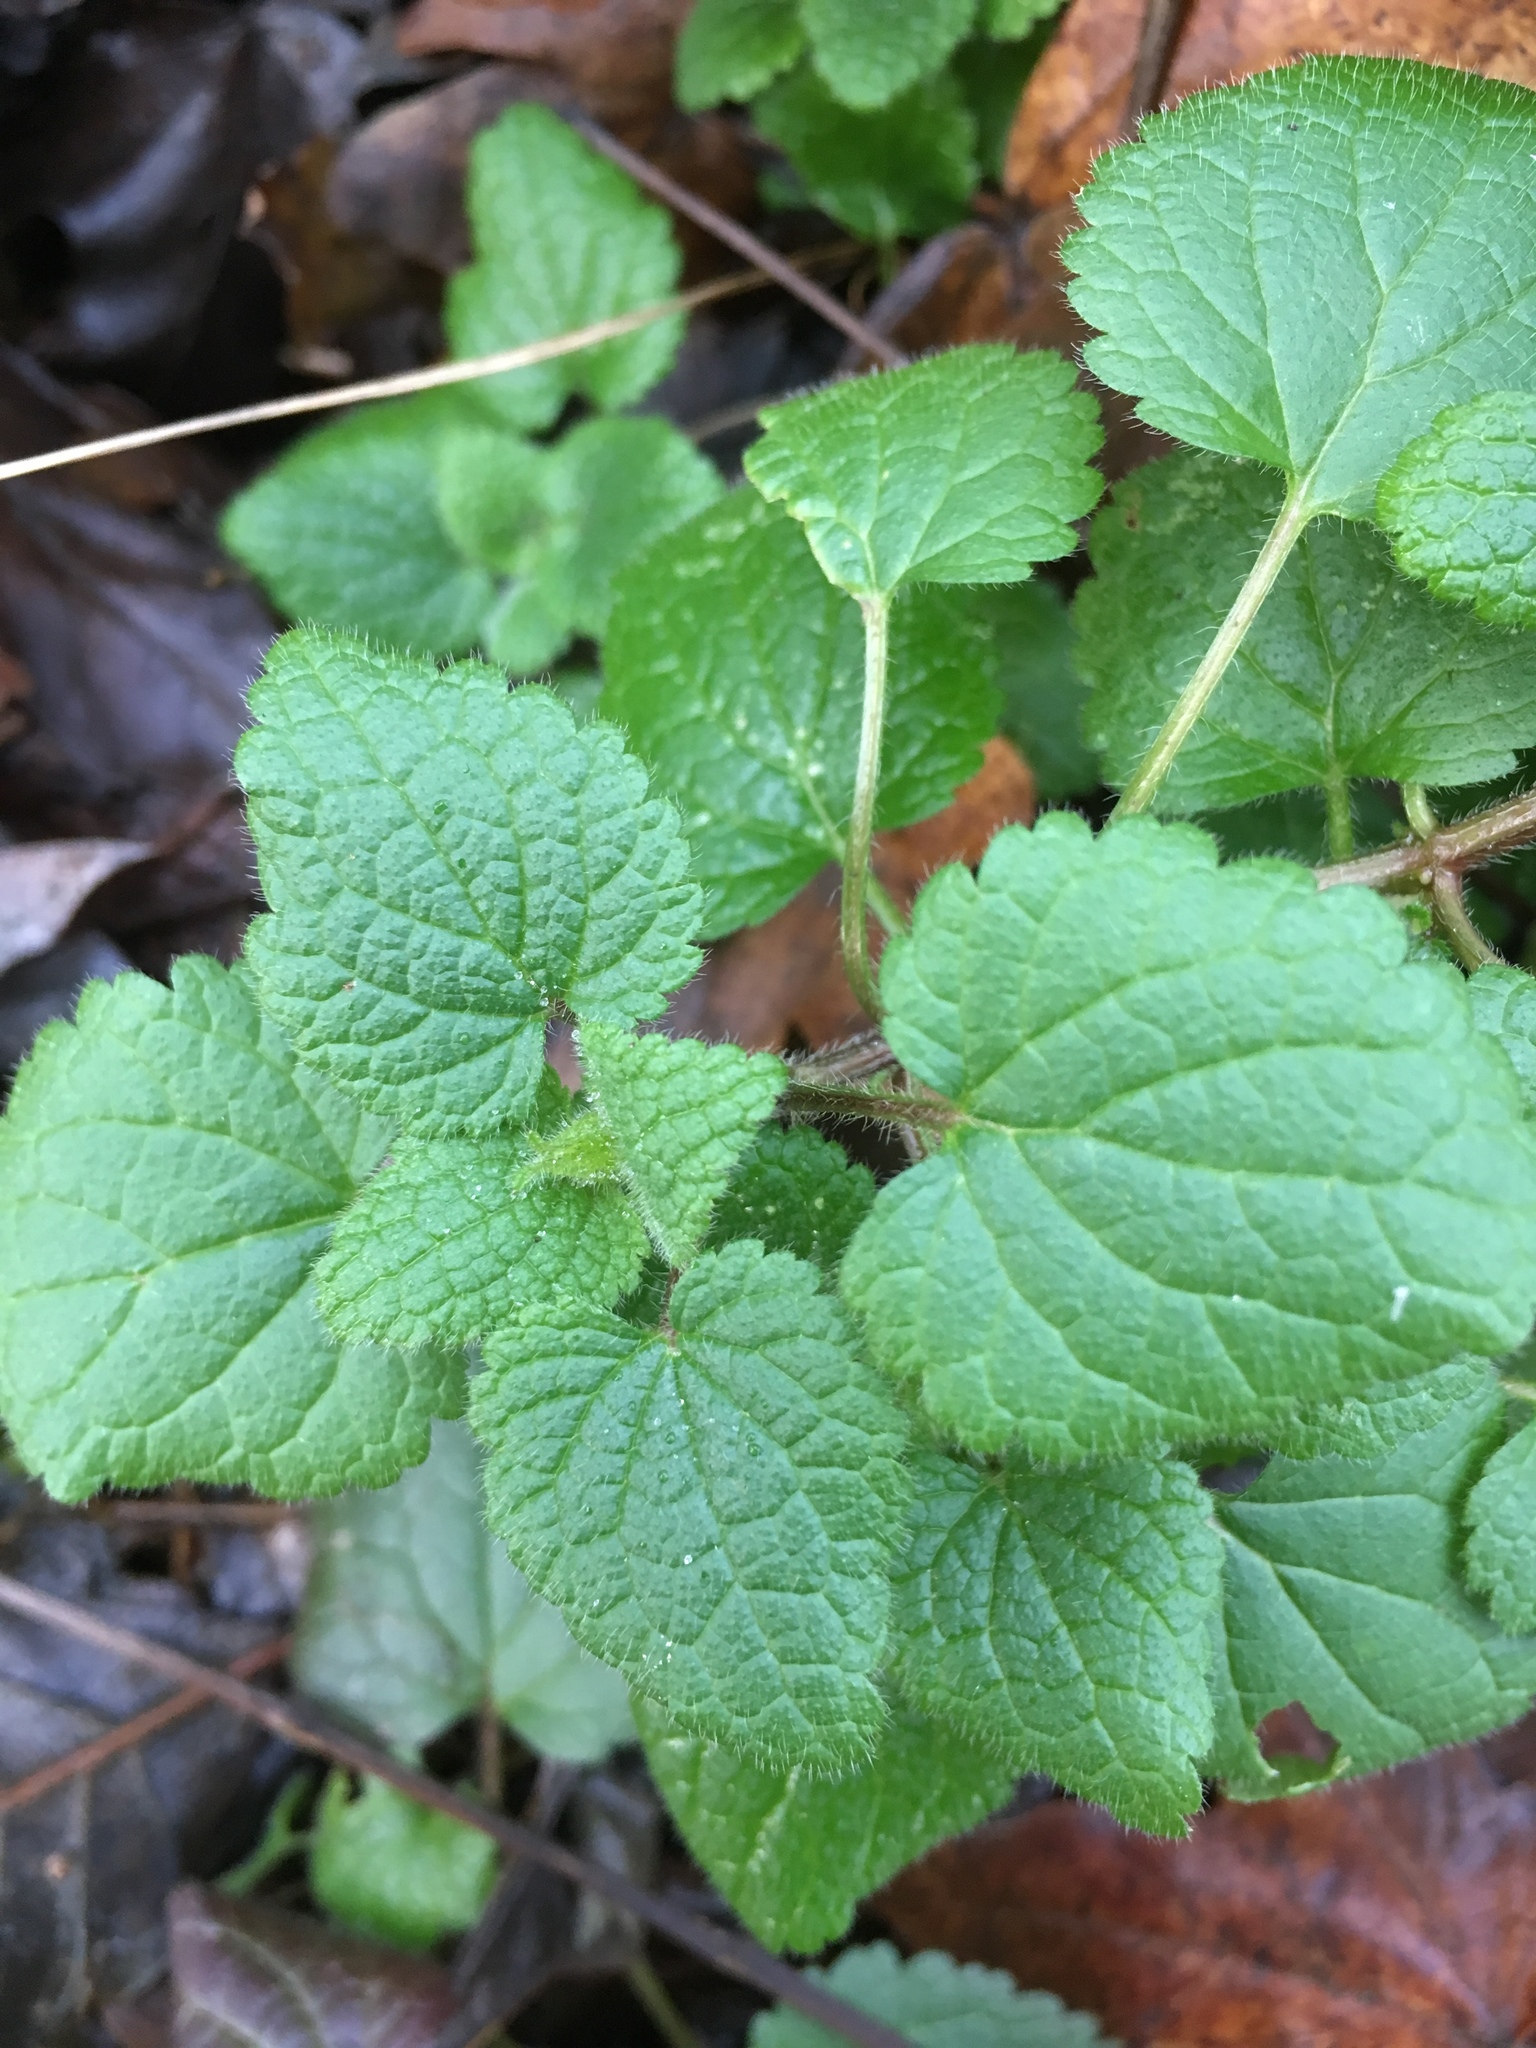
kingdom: Plantae
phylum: Tracheophyta
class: Magnoliopsida
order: Lamiales
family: Lamiaceae
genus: Lamium
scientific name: Lamium purpureum
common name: Red dead-nettle
